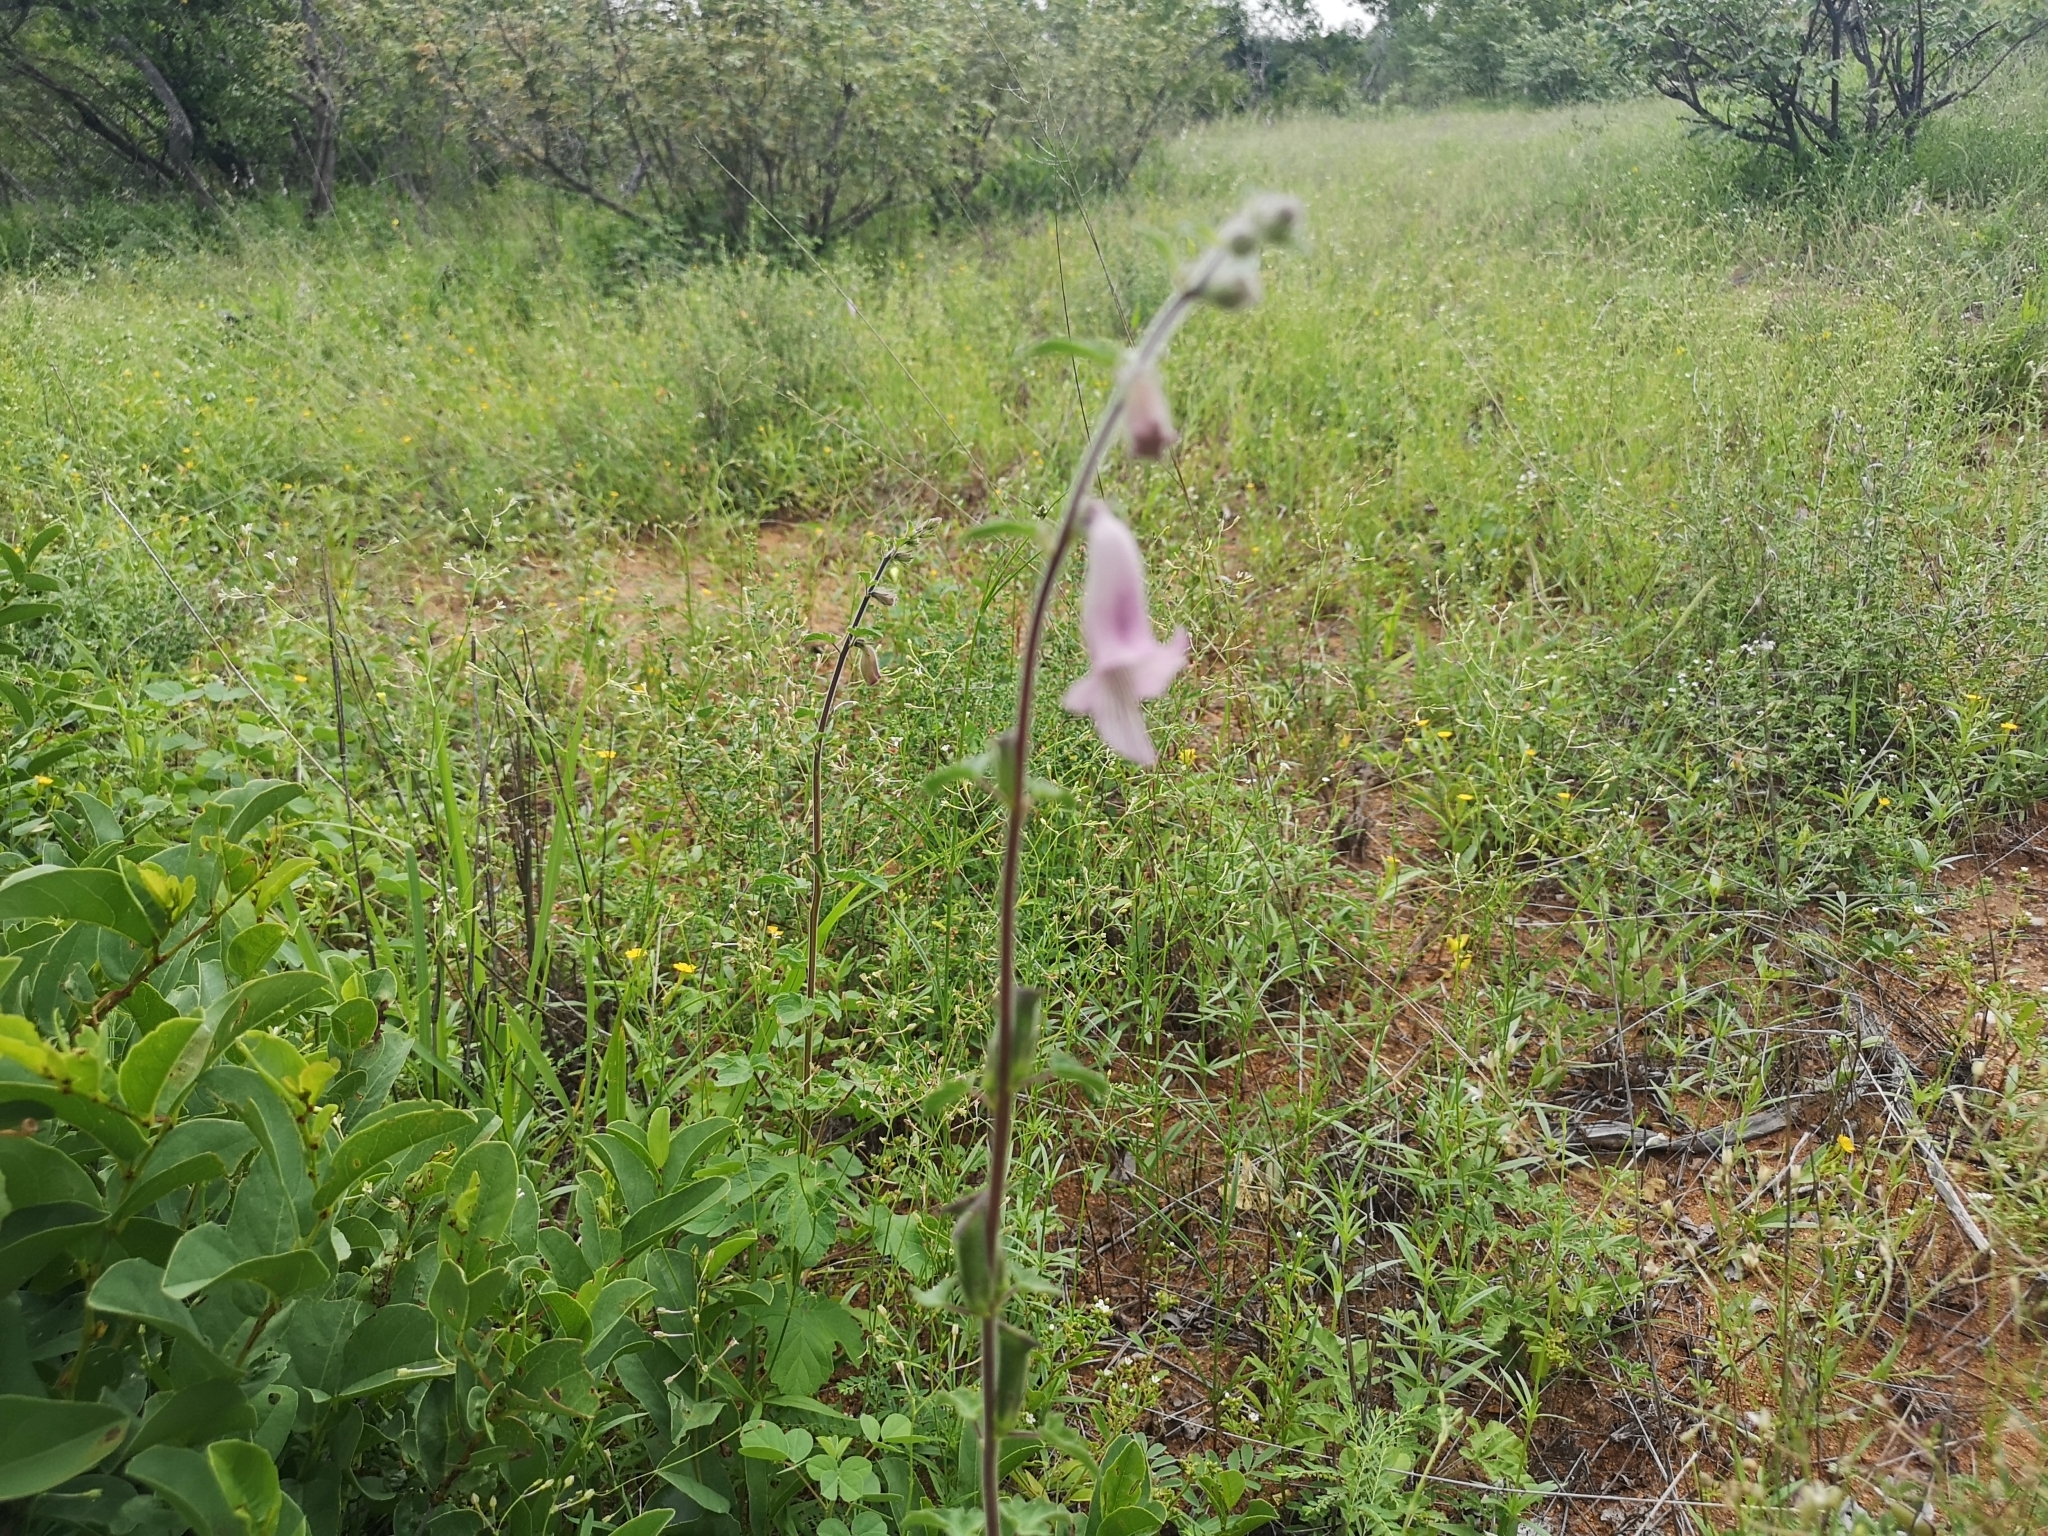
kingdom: Plantae
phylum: Tracheophyta
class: Magnoliopsida
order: Lamiales
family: Pedaliaceae
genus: Sesamum
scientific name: Sesamum trilobum
